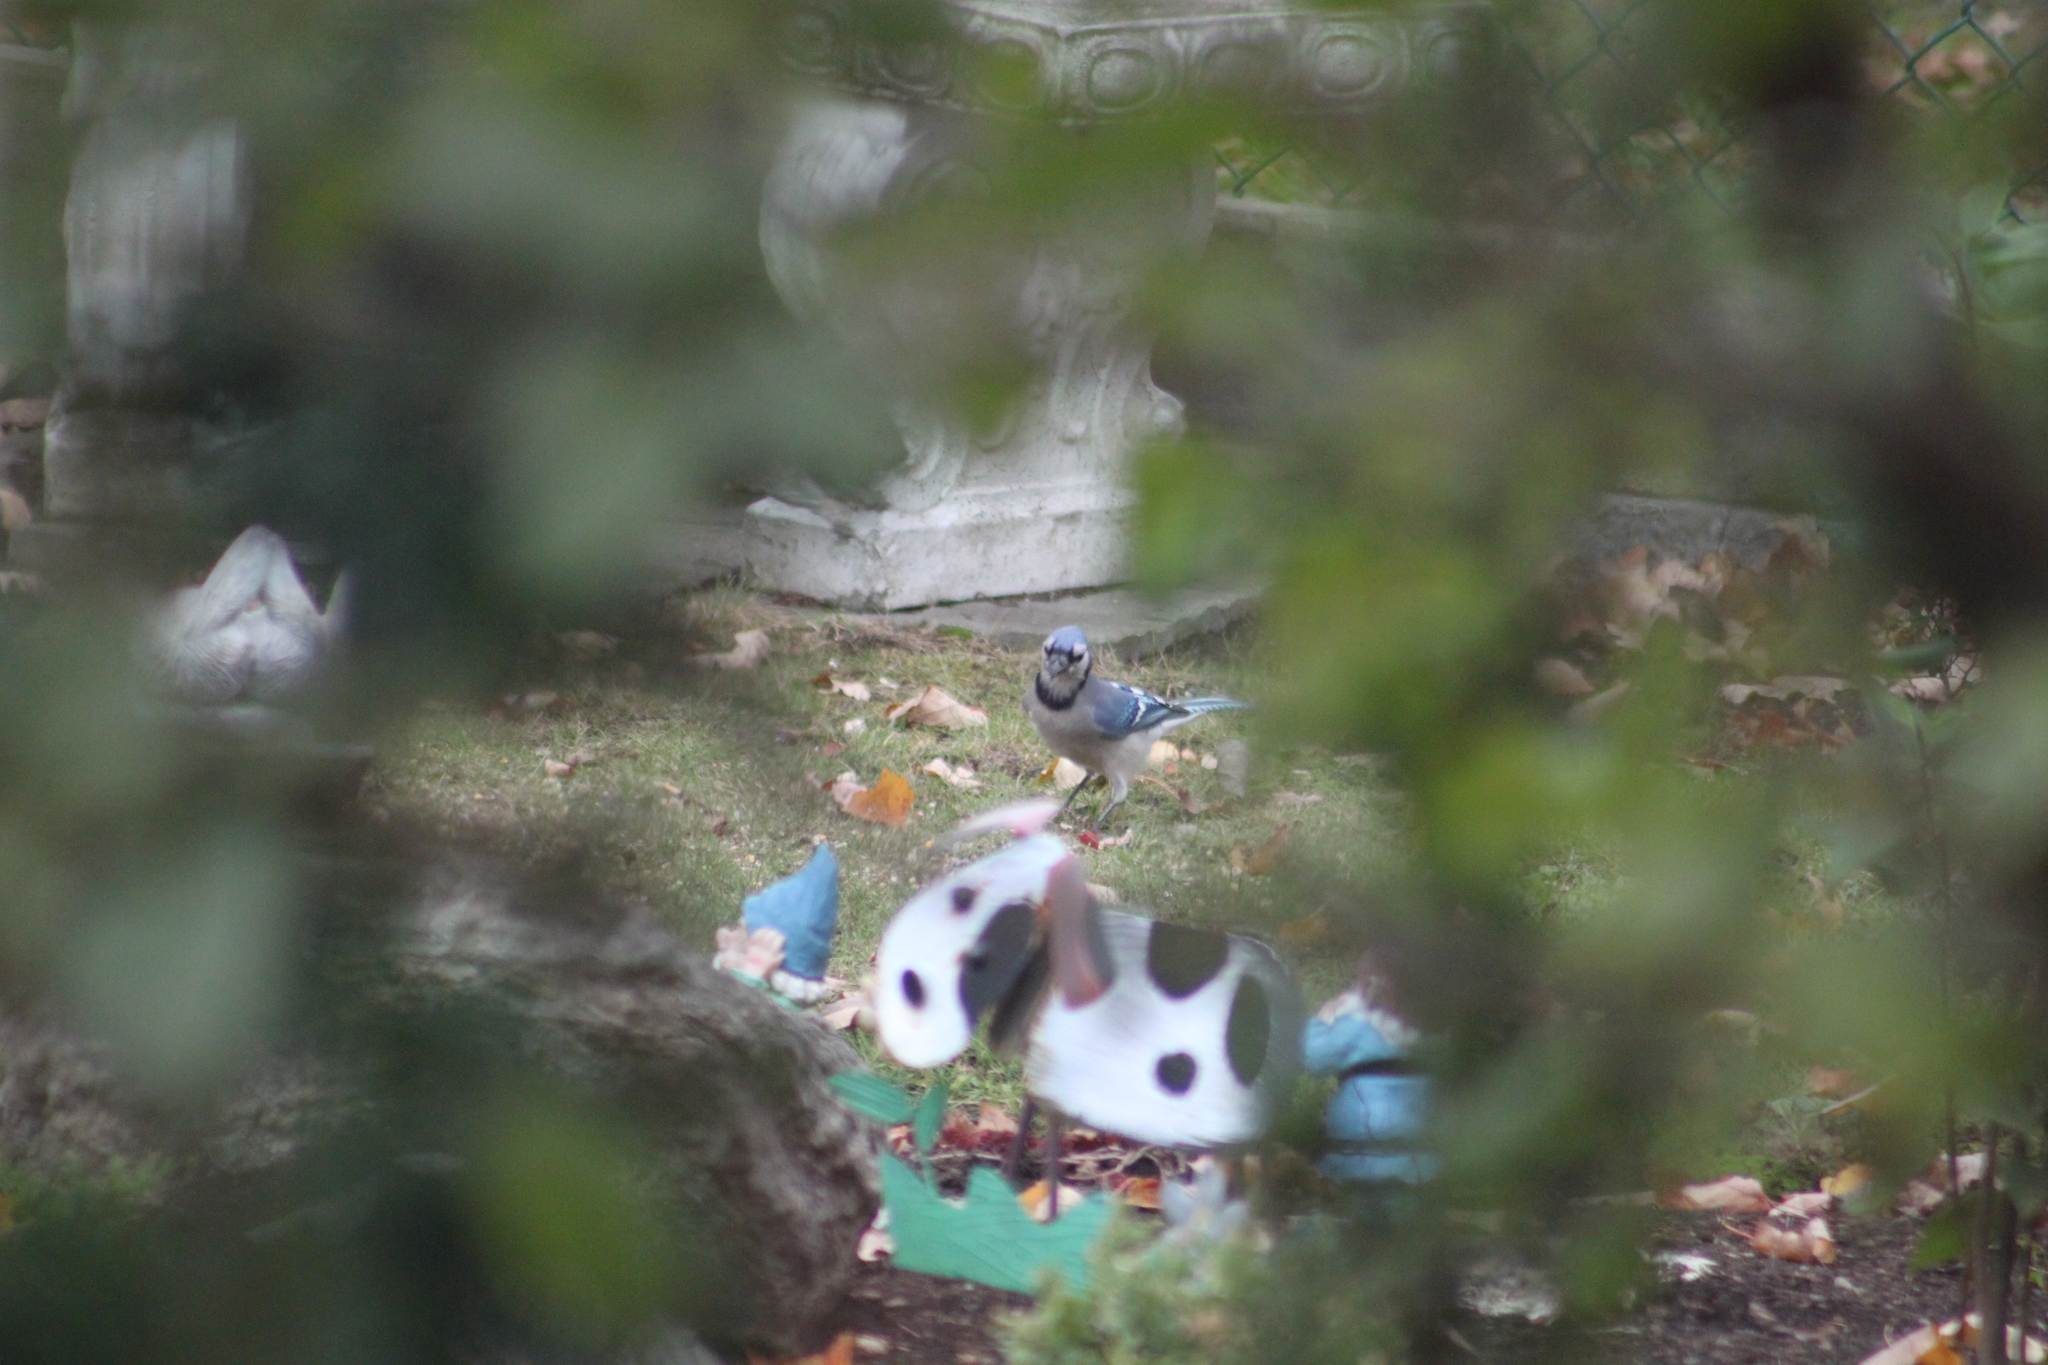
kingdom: Animalia
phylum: Chordata
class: Aves
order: Passeriformes
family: Corvidae
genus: Cyanocitta
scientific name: Cyanocitta cristata
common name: Blue jay
